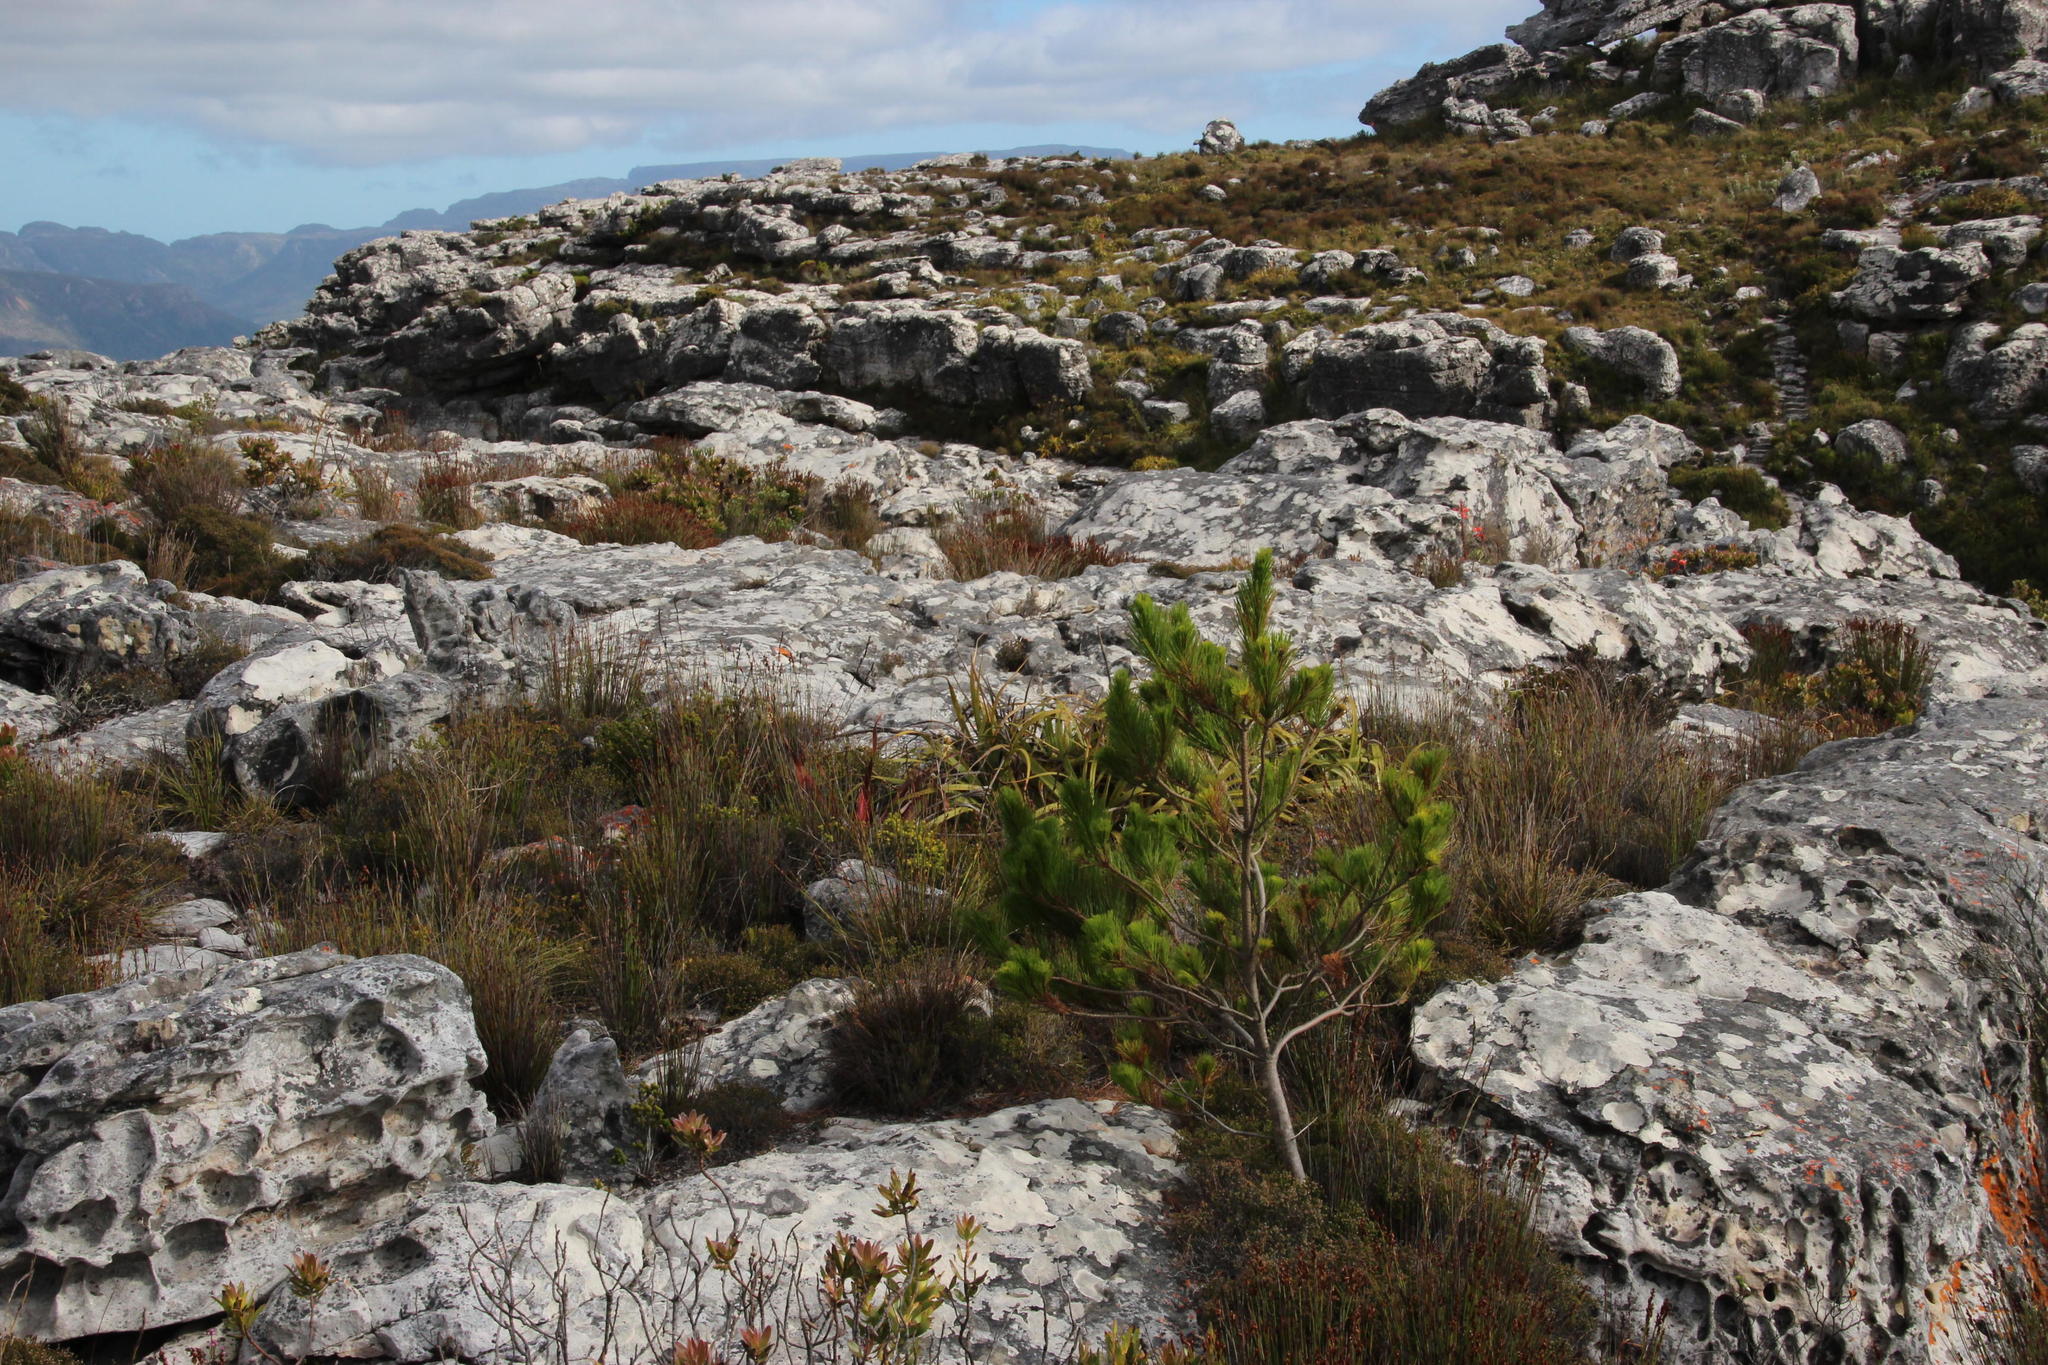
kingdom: Plantae
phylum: Tracheophyta
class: Pinopsida
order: Pinales
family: Pinaceae
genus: Pinus
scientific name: Pinus pinaster
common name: Maritime pine
